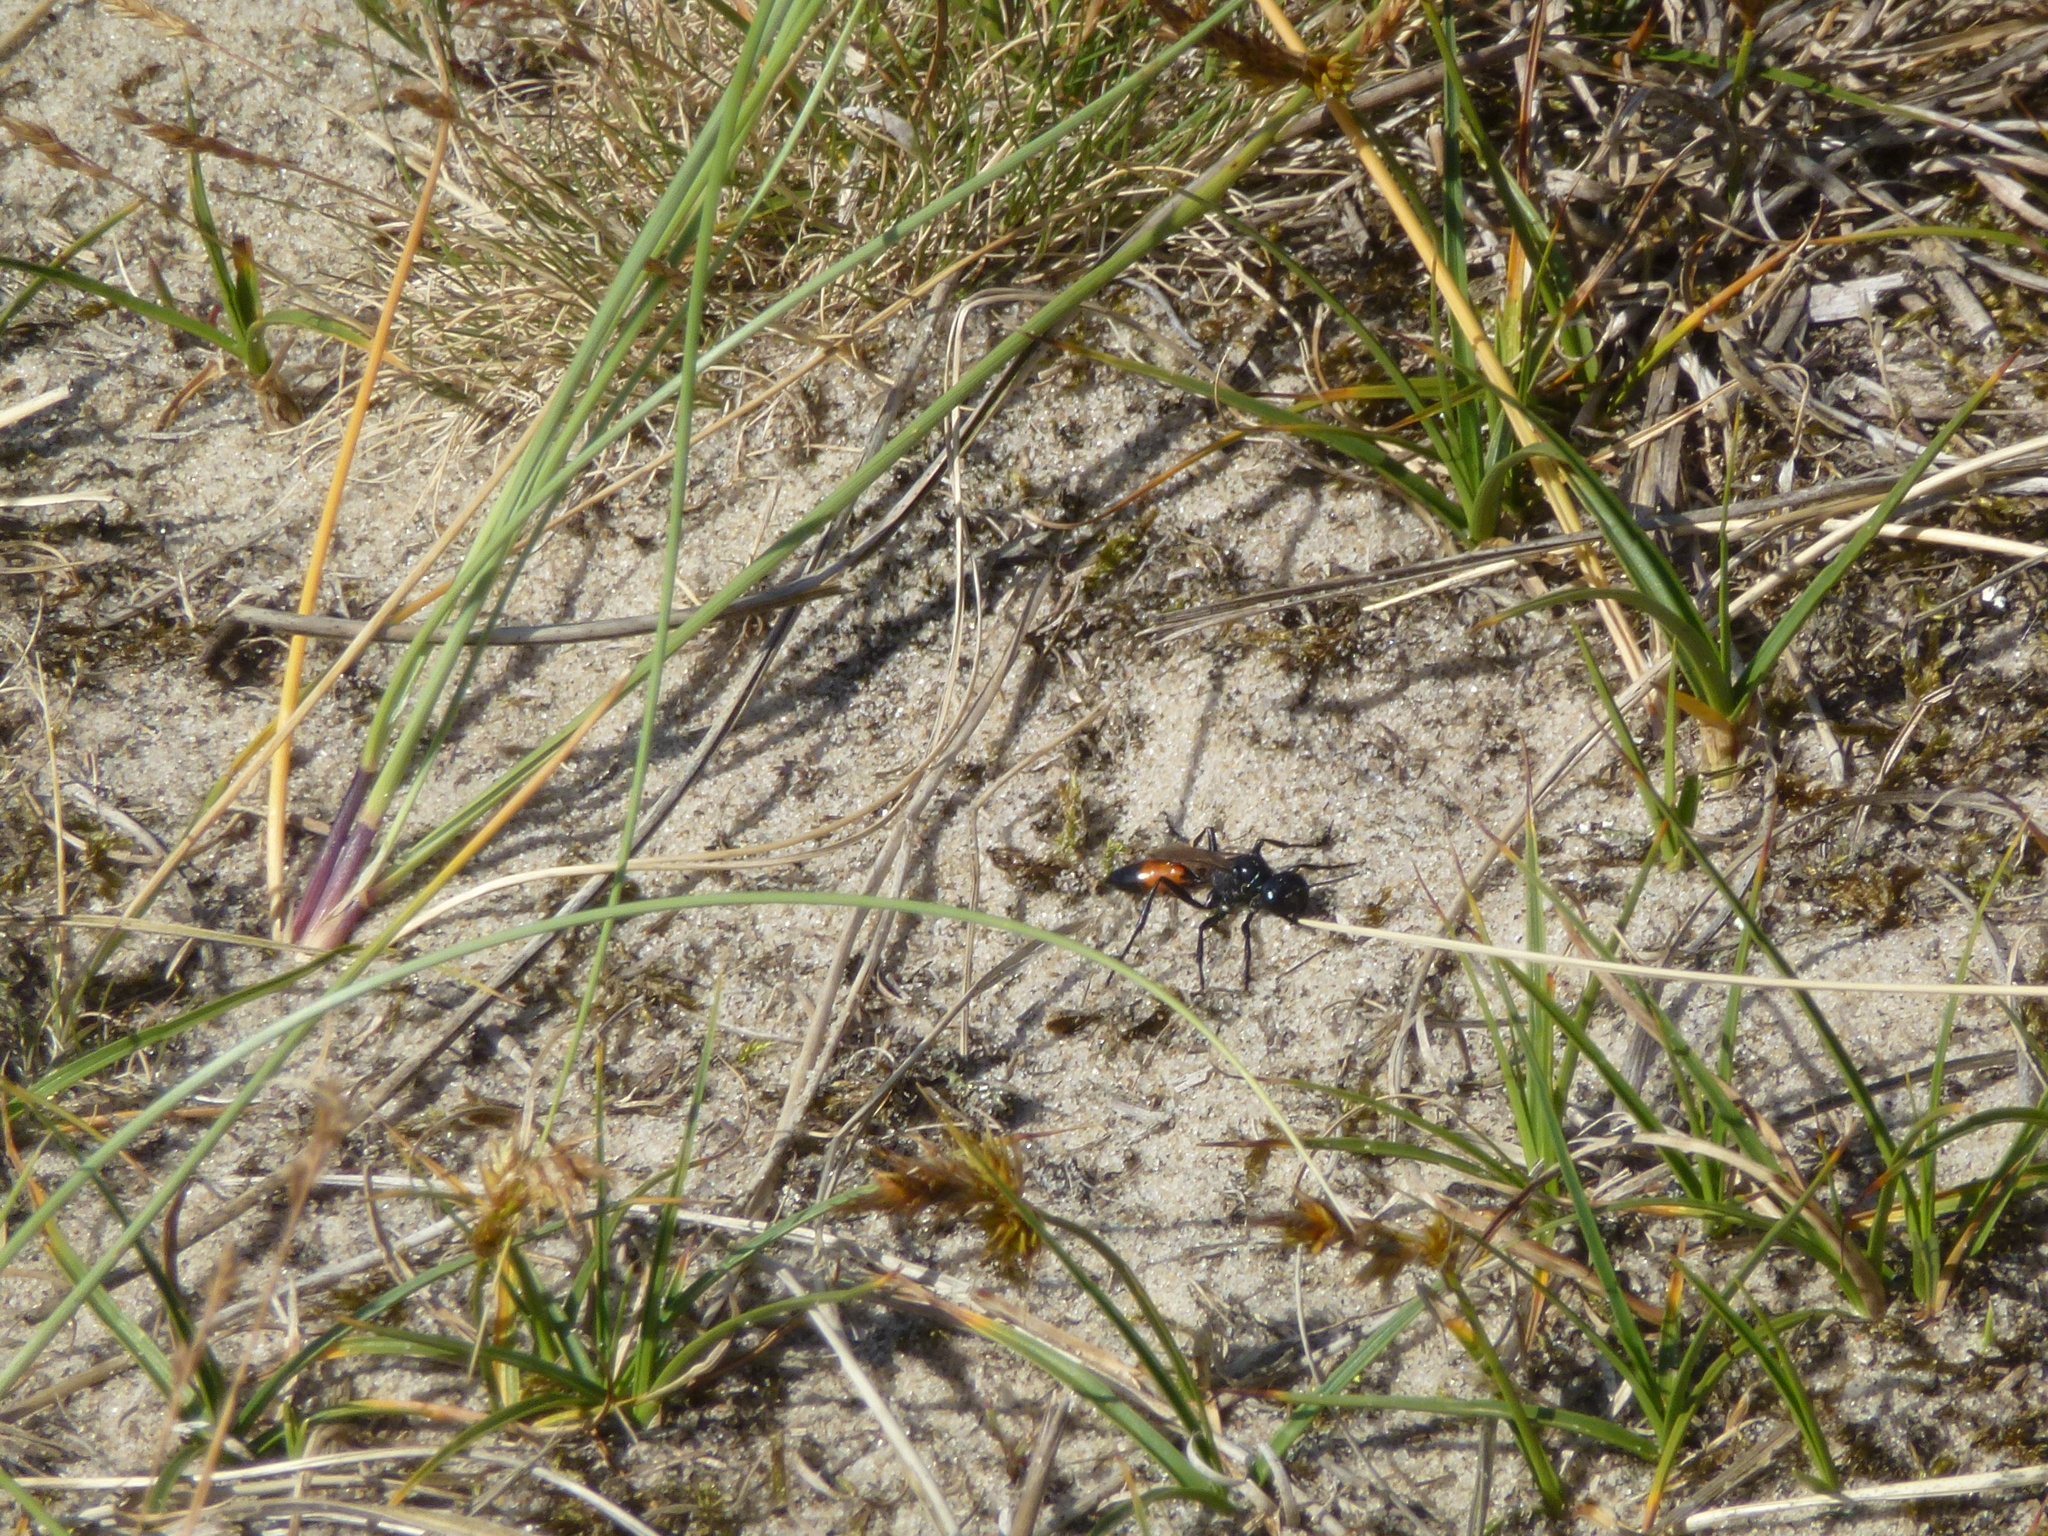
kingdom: Animalia
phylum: Arthropoda
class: Insecta
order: Hymenoptera
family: Sphecidae
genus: Podalonia
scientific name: Podalonia affinis
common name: Mud wasp
